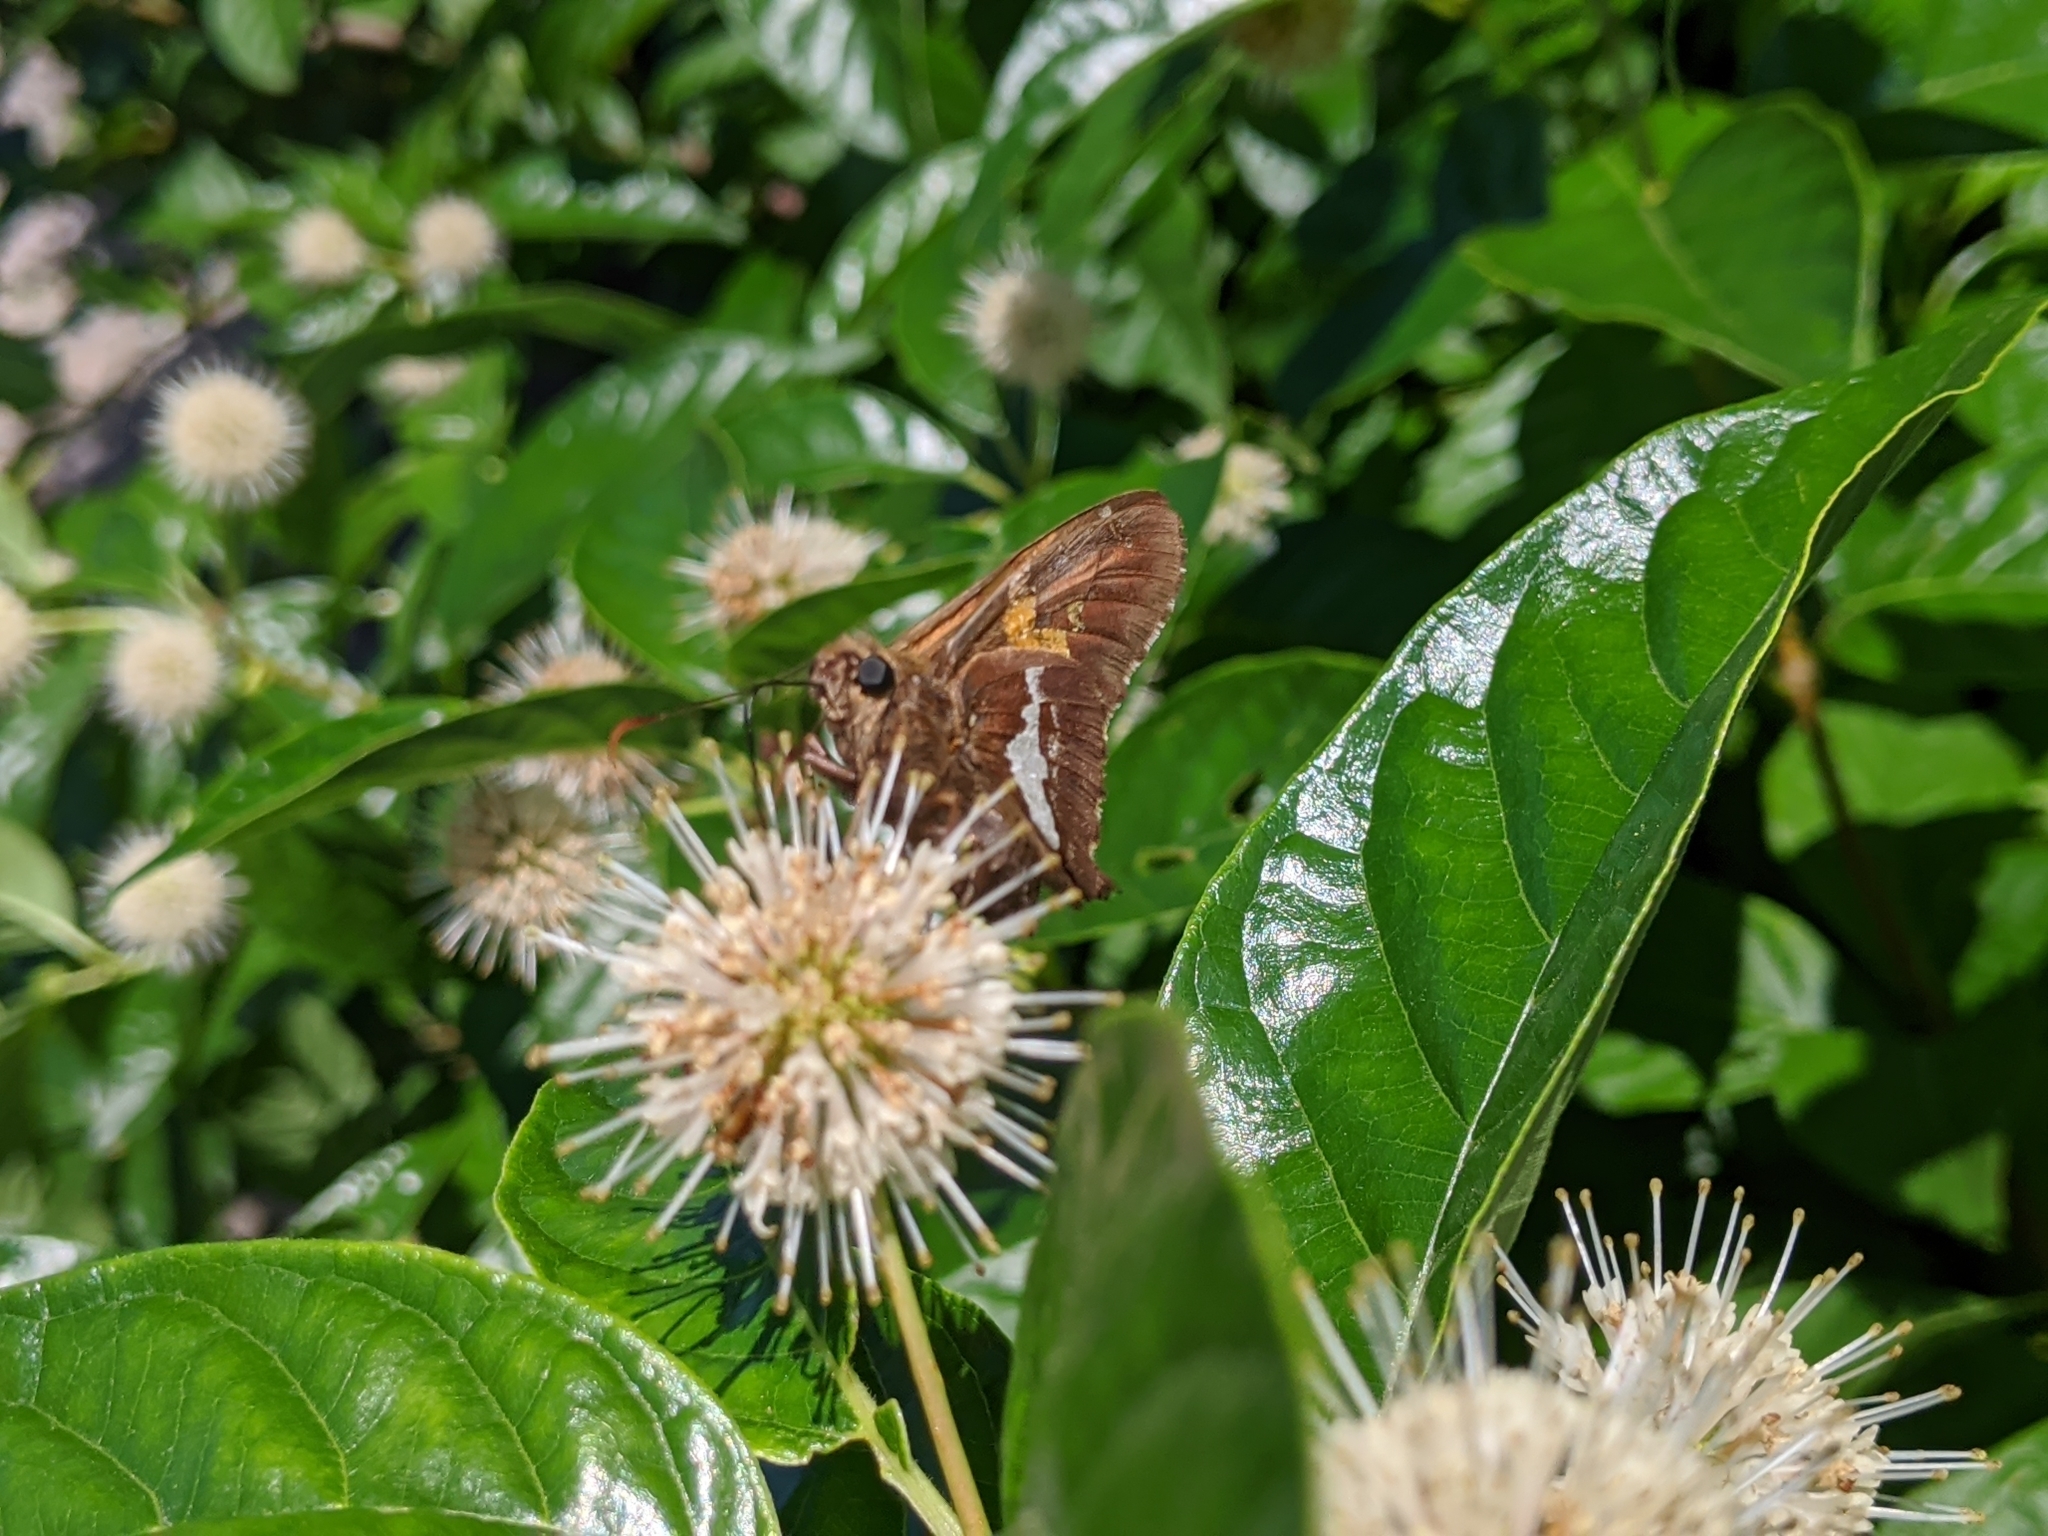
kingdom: Animalia
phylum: Arthropoda
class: Insecta
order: Lepidoptera
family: Hesperiidae
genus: Epargyreus
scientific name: Epargyreus clarus
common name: Silver-spotted skipper
